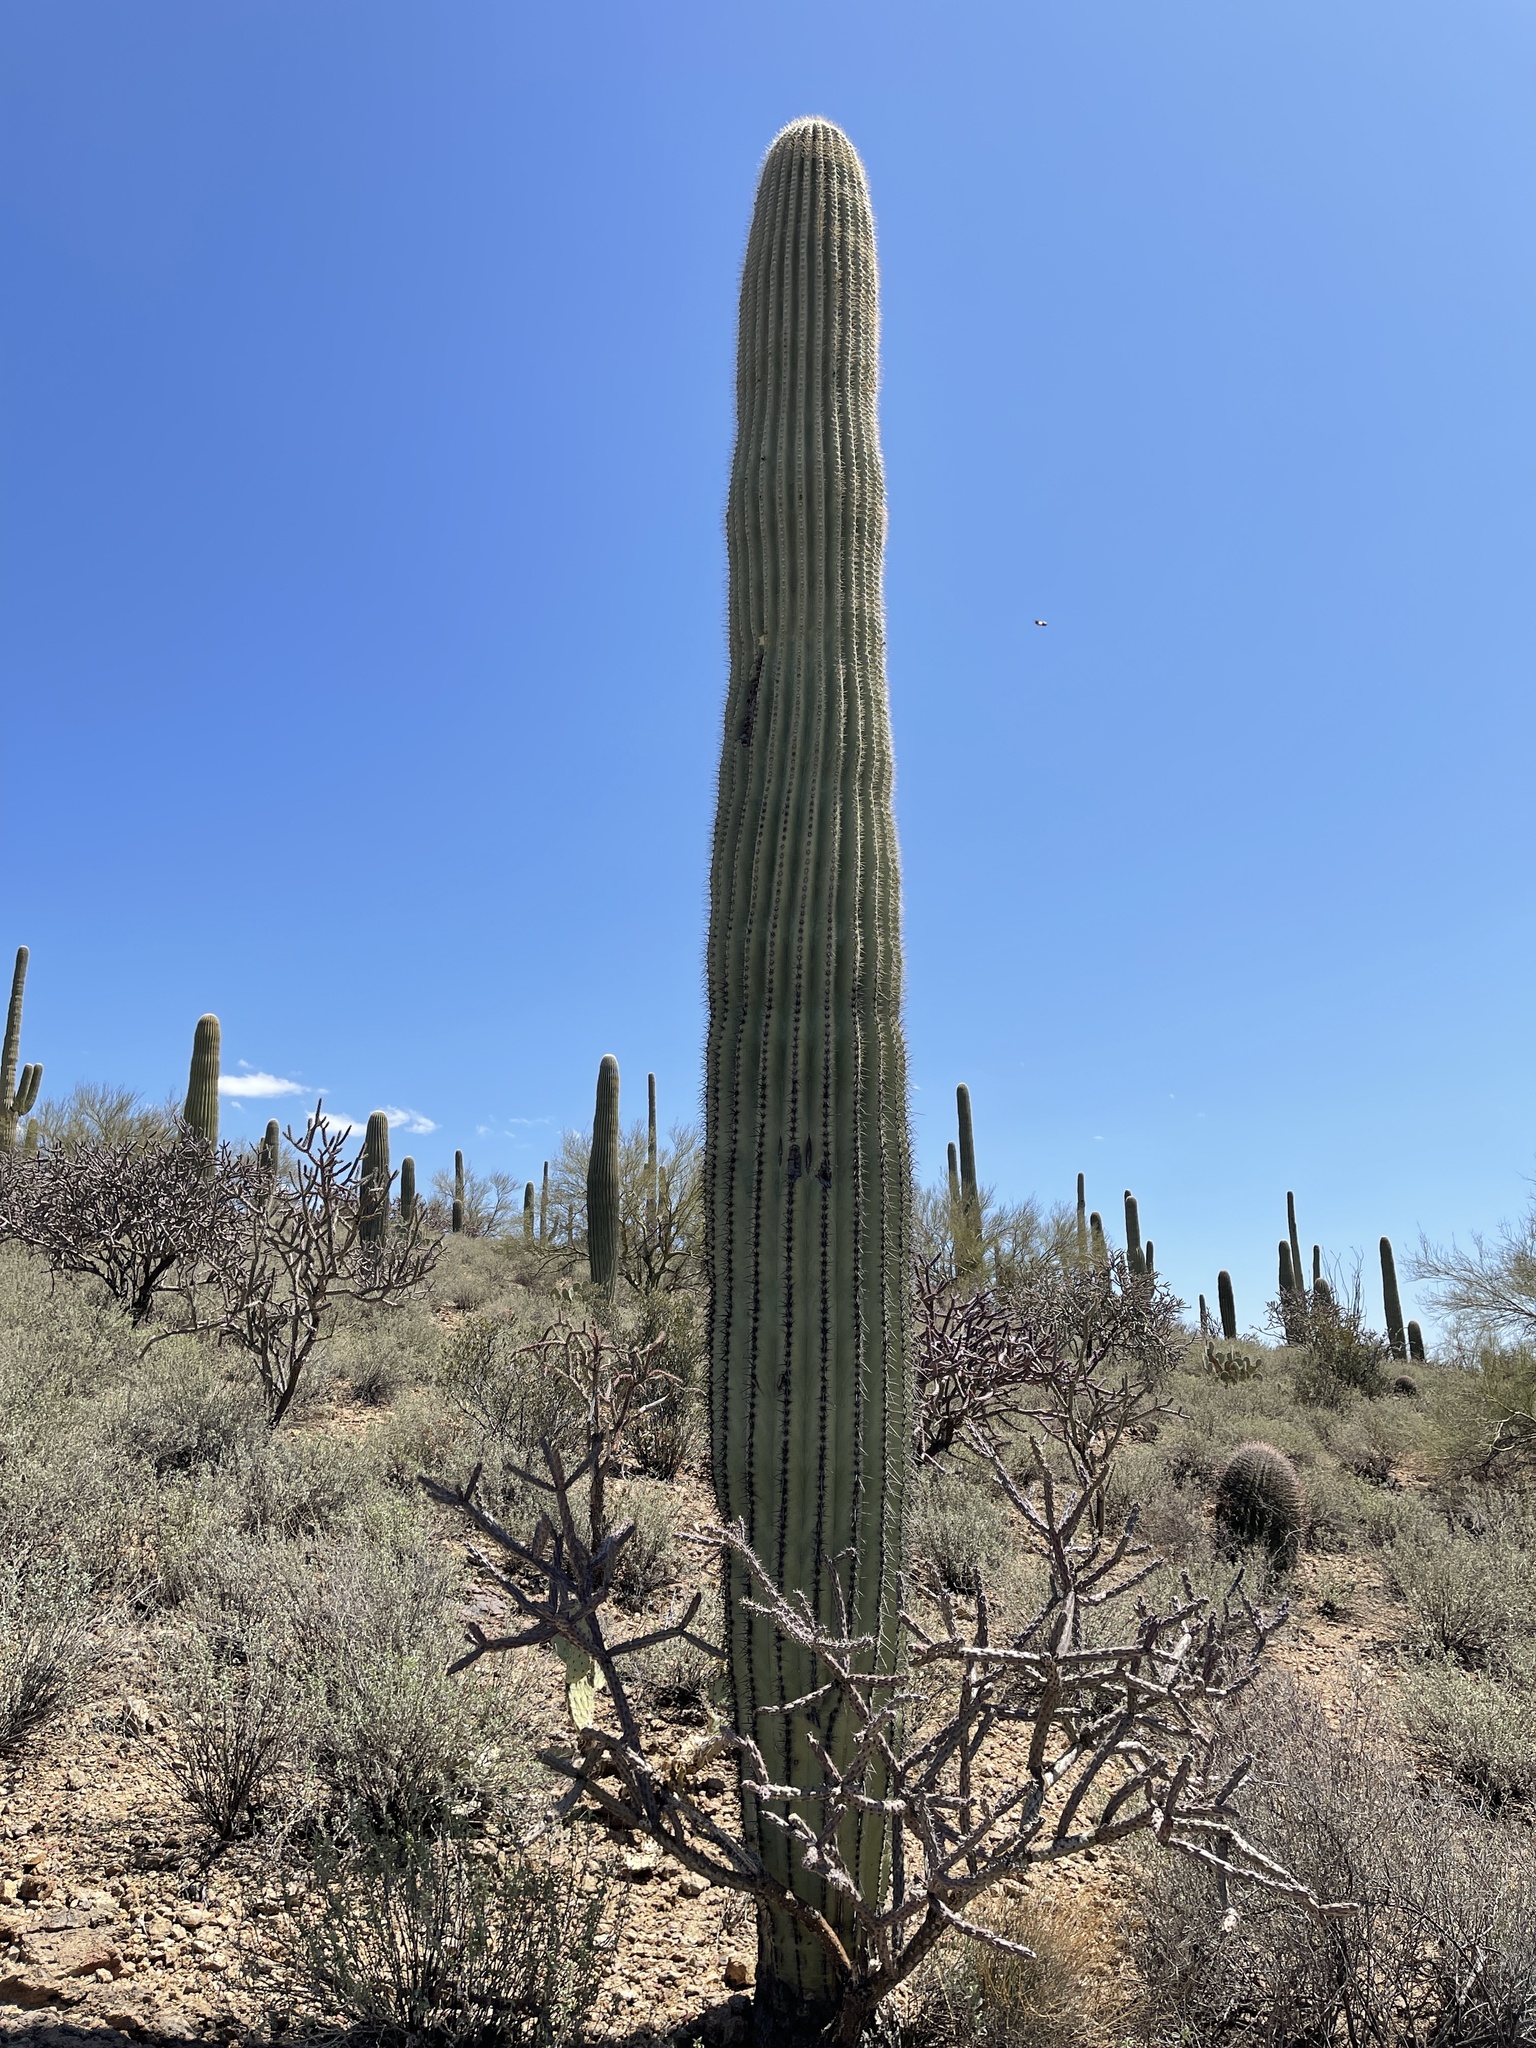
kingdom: Plantae
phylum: Tracheophyta
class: Magnoliopsida
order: Caryophyllales
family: Cactaceae
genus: Carnegiea
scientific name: Carnegiea gigantea
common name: Saguaro
